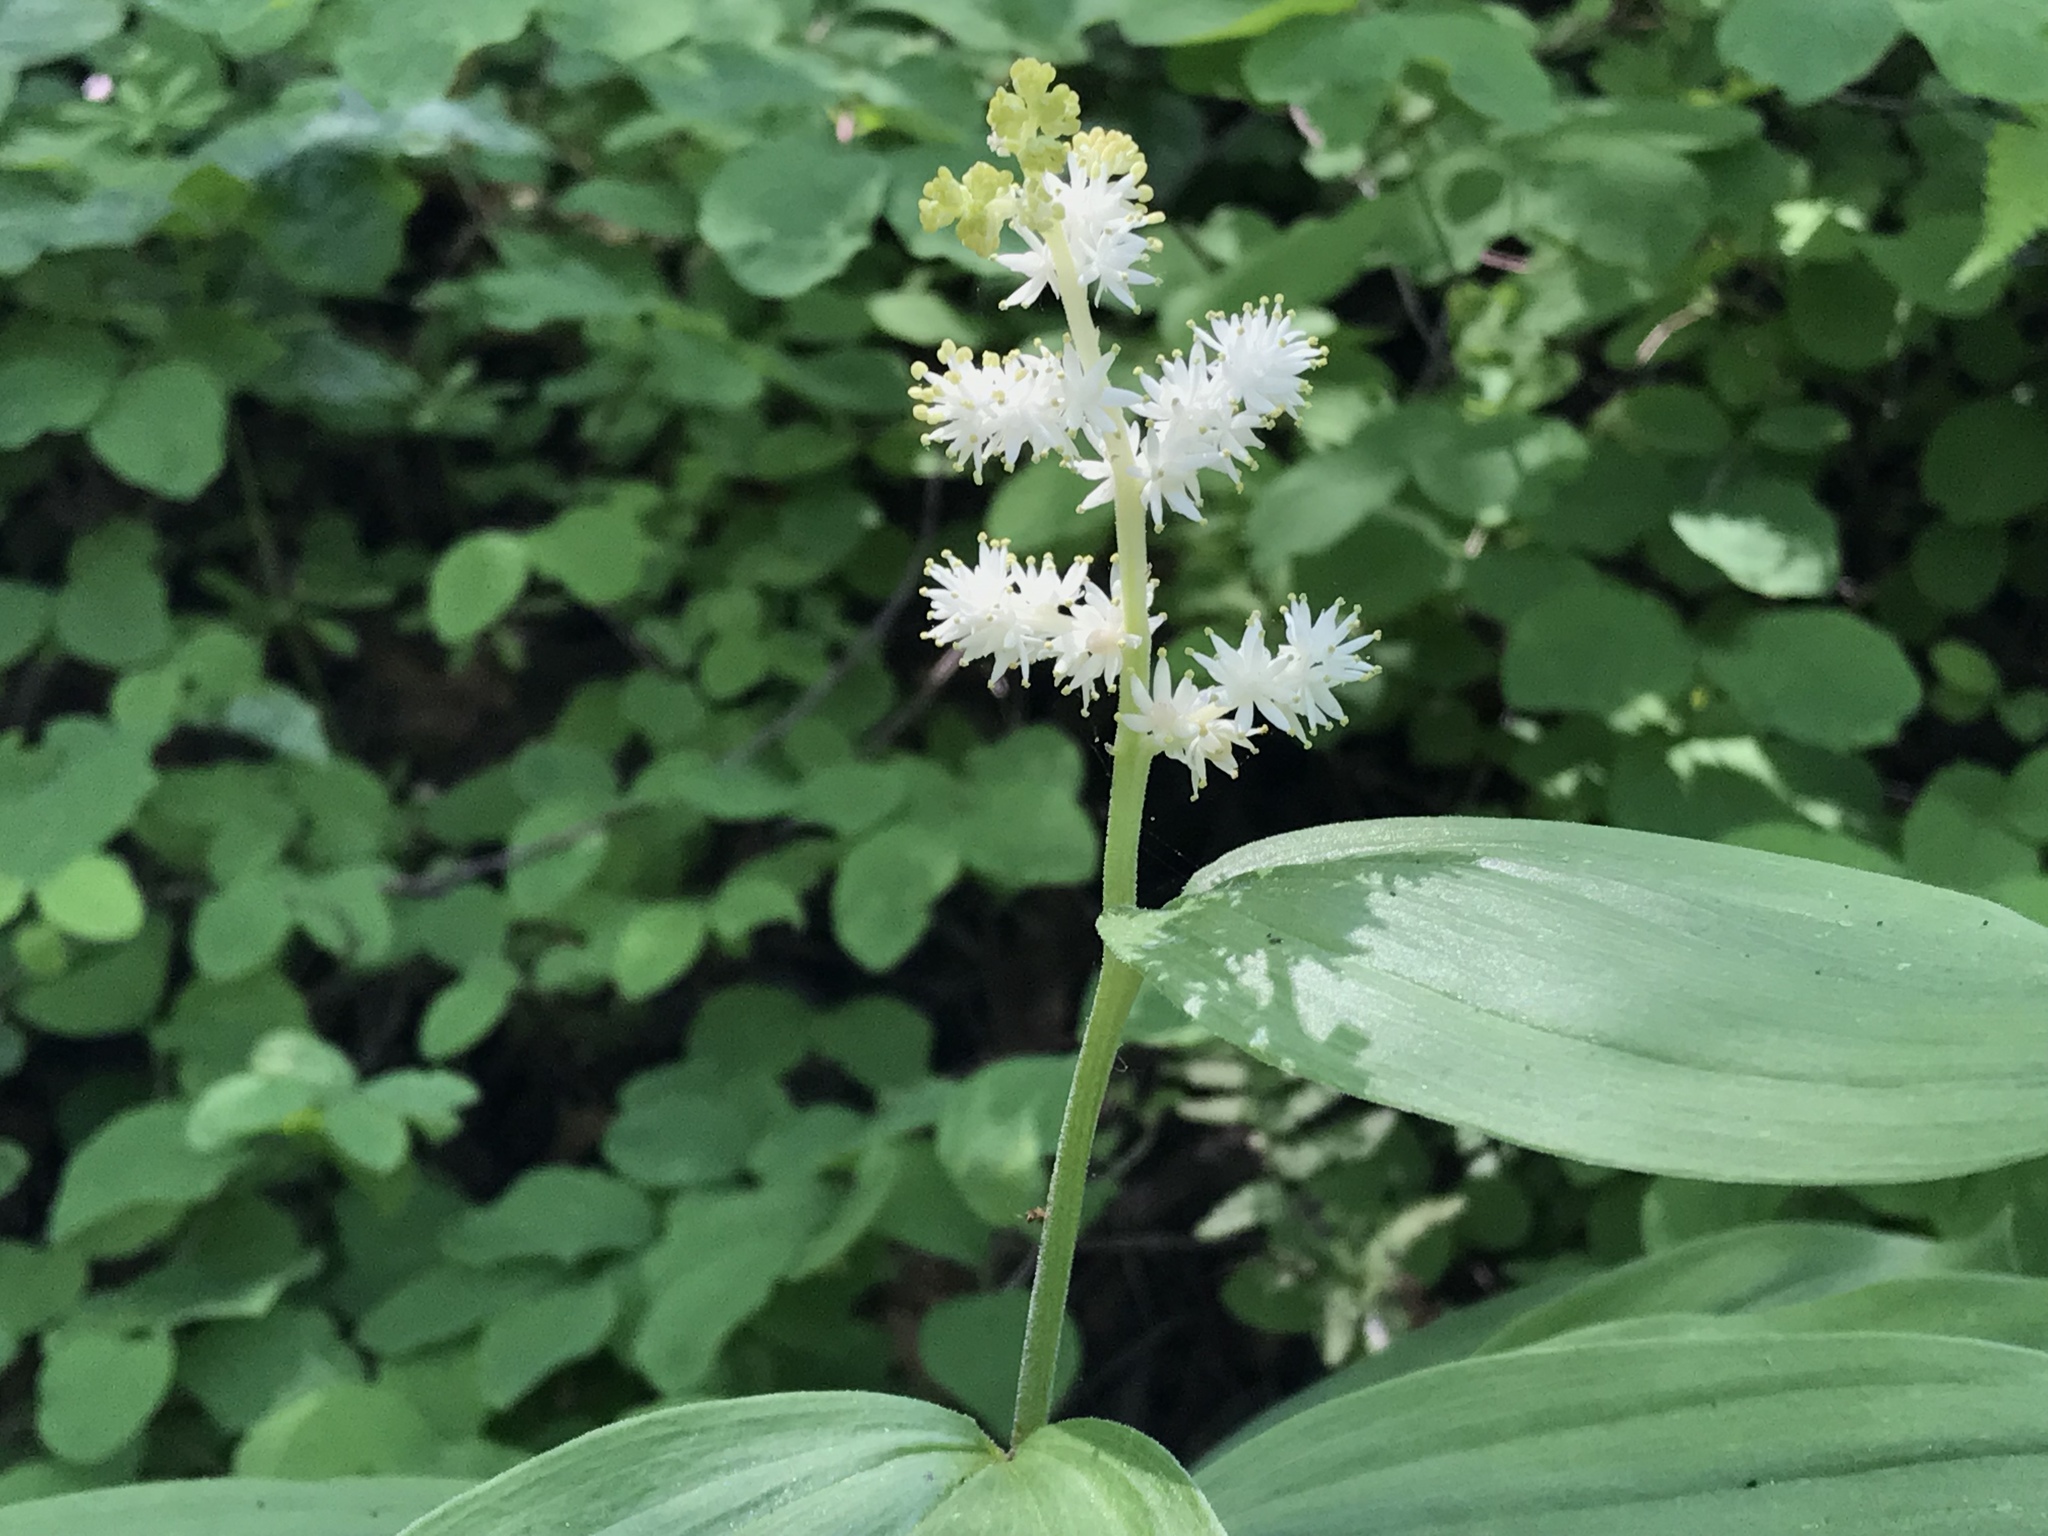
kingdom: Plantae
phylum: Tracheophyta
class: Liliopsida
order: Asparagales
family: Asparagaceae
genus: Maianthemum
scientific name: Maianthemum racemosum
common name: False spikenard
